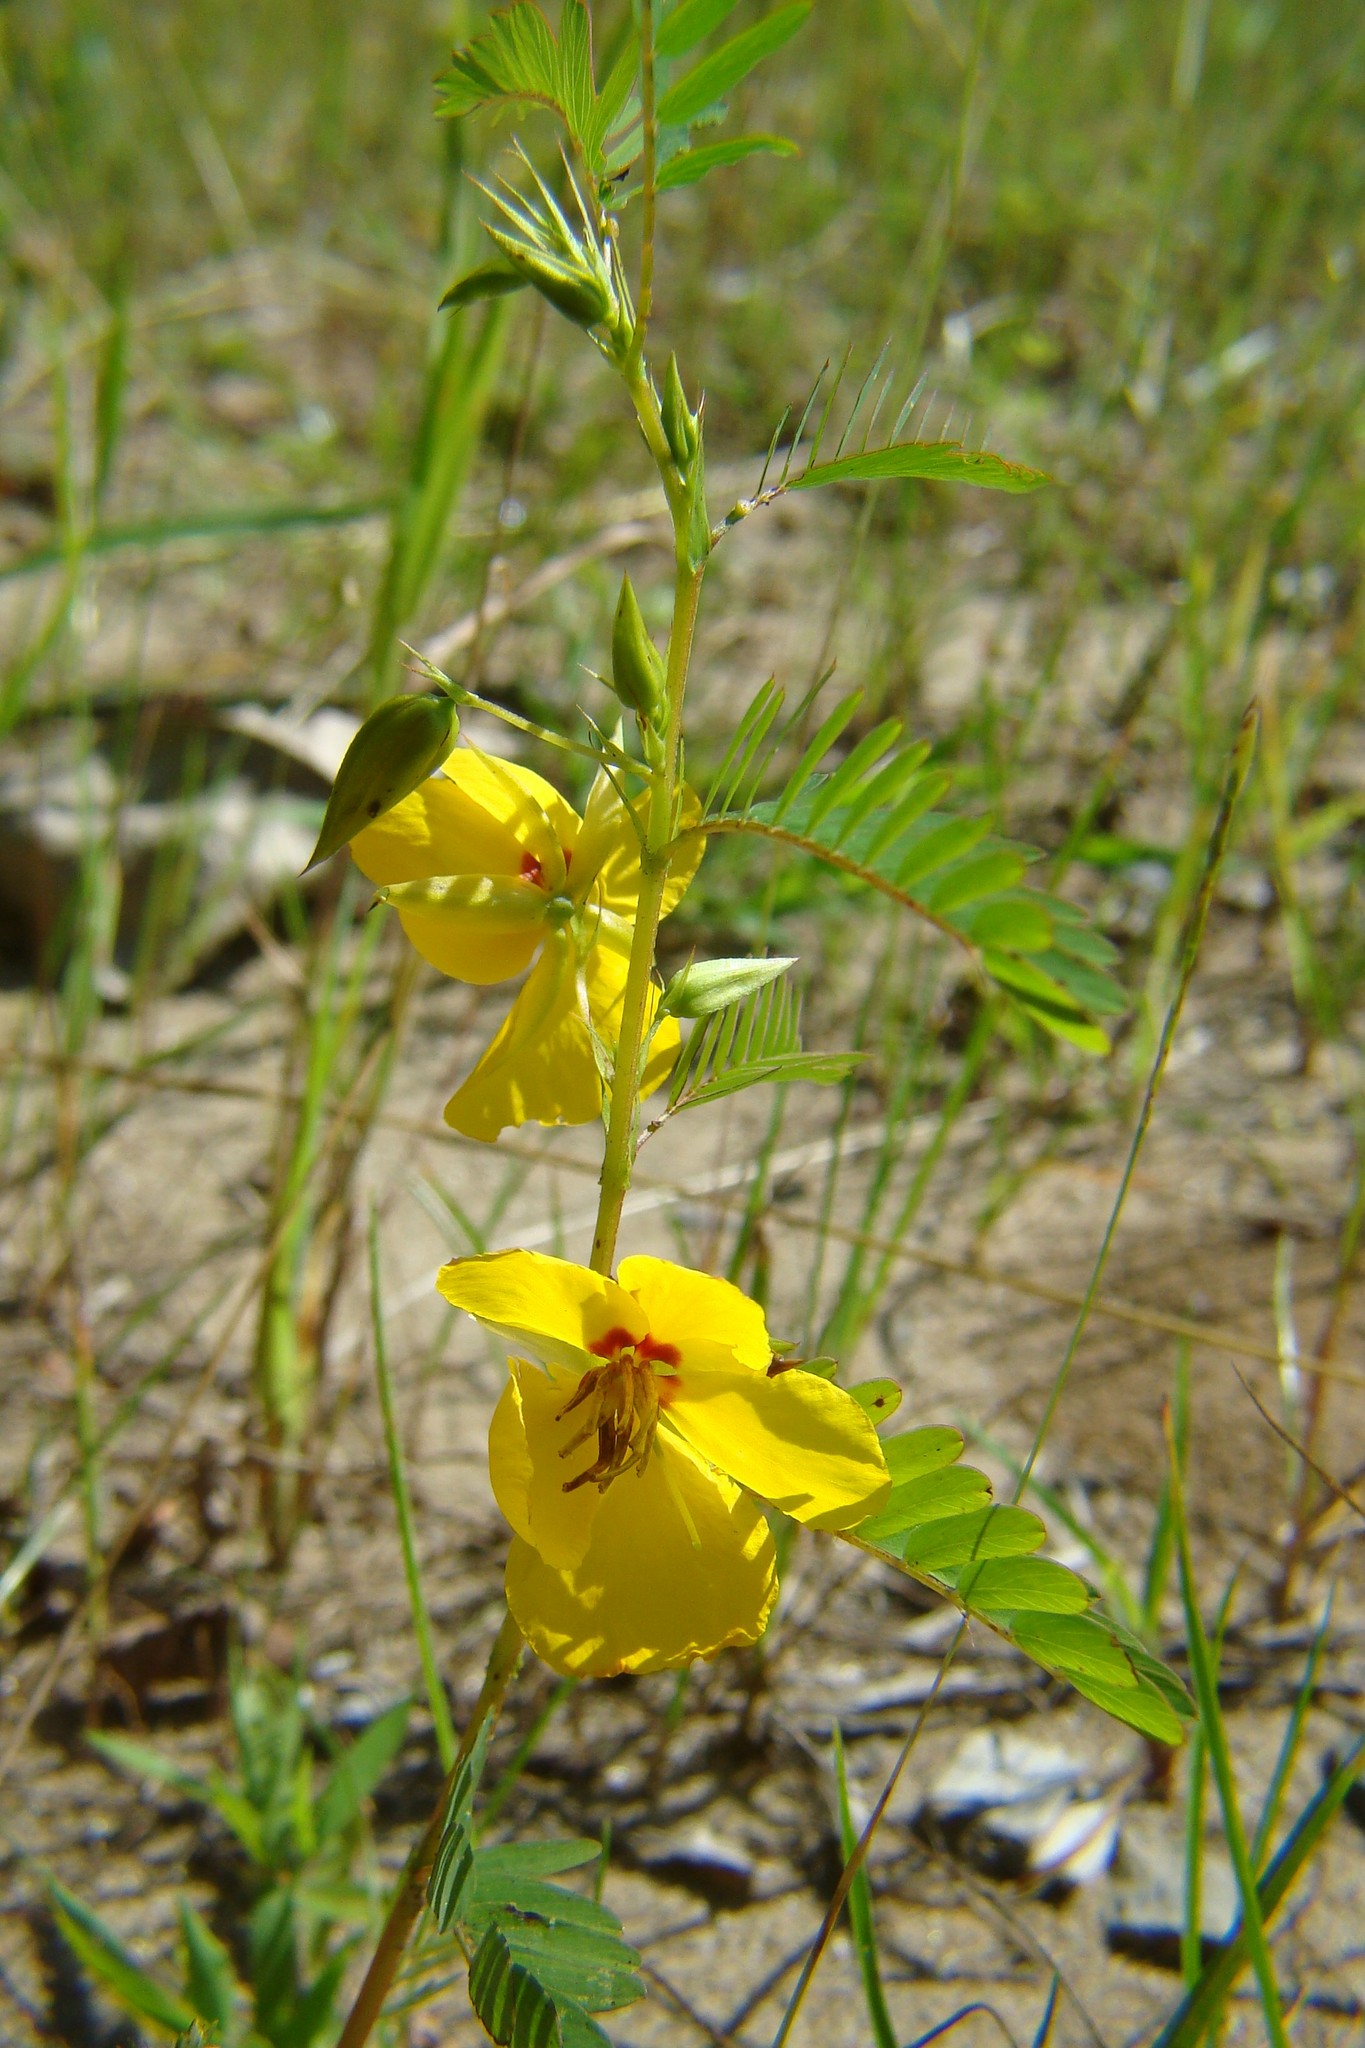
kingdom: Plantae
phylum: Tracheophyta
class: Magnoliopsida
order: Fabales
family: Fabaceae
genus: Chamaecrista
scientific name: Chamaecrista fasciculata
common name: Golden cassia
